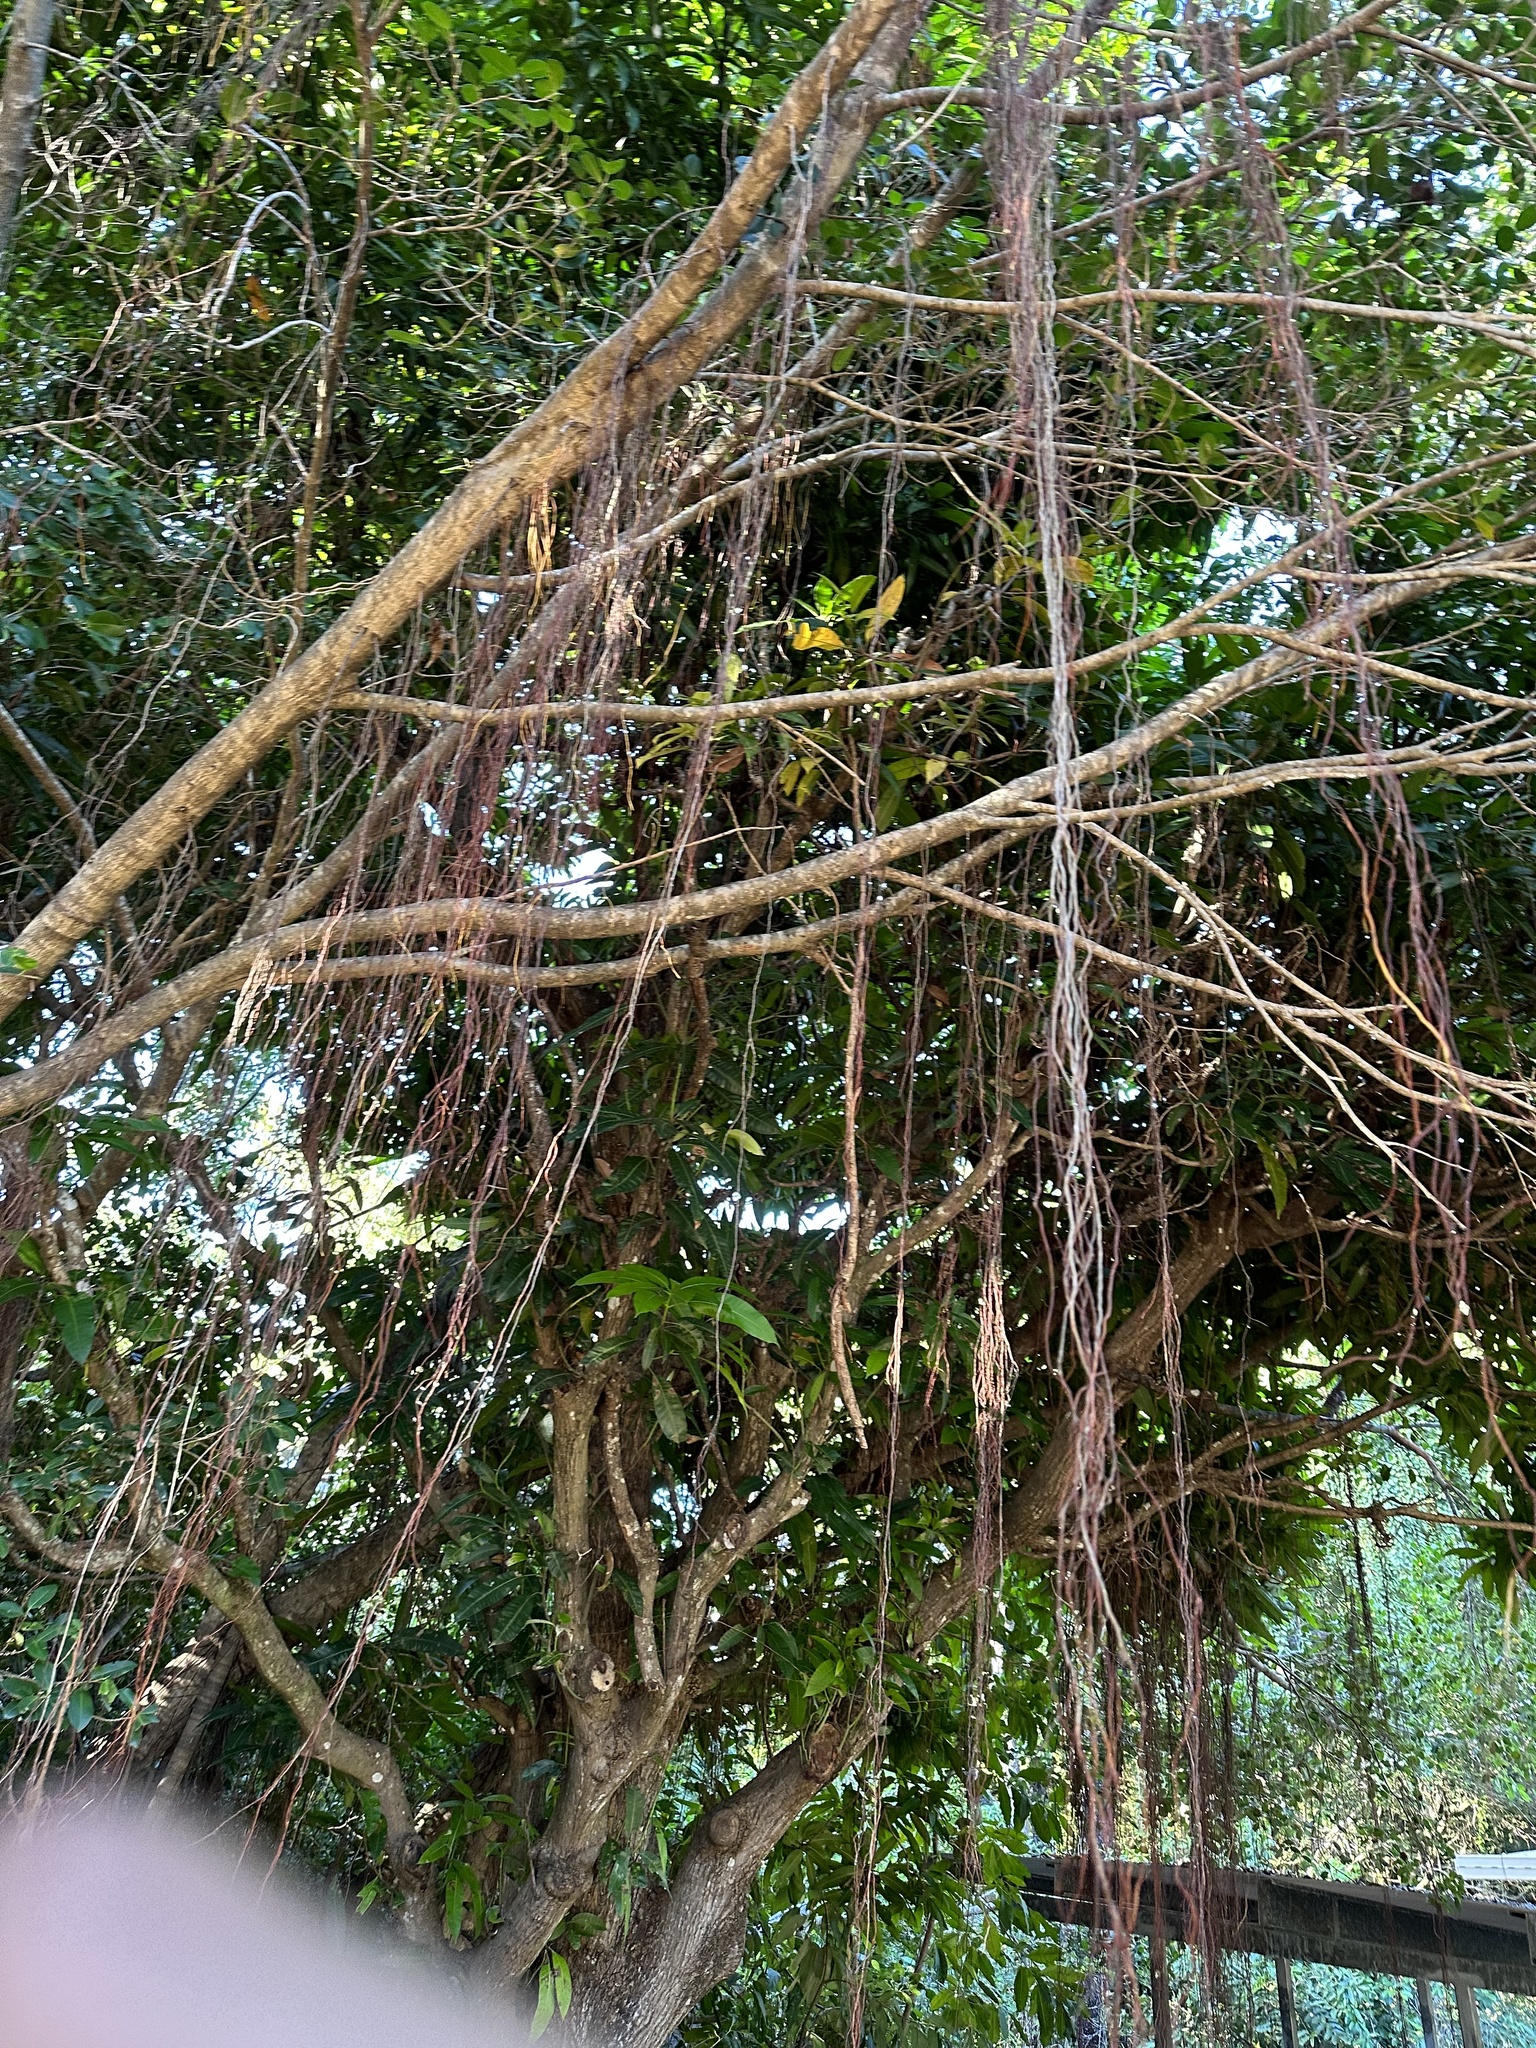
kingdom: Plantae
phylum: Tracheophyta
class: Magnoliopsida
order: Rosales
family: Moraceae
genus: Ficus
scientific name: Ficus microcarpa
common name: Chinese banyan
